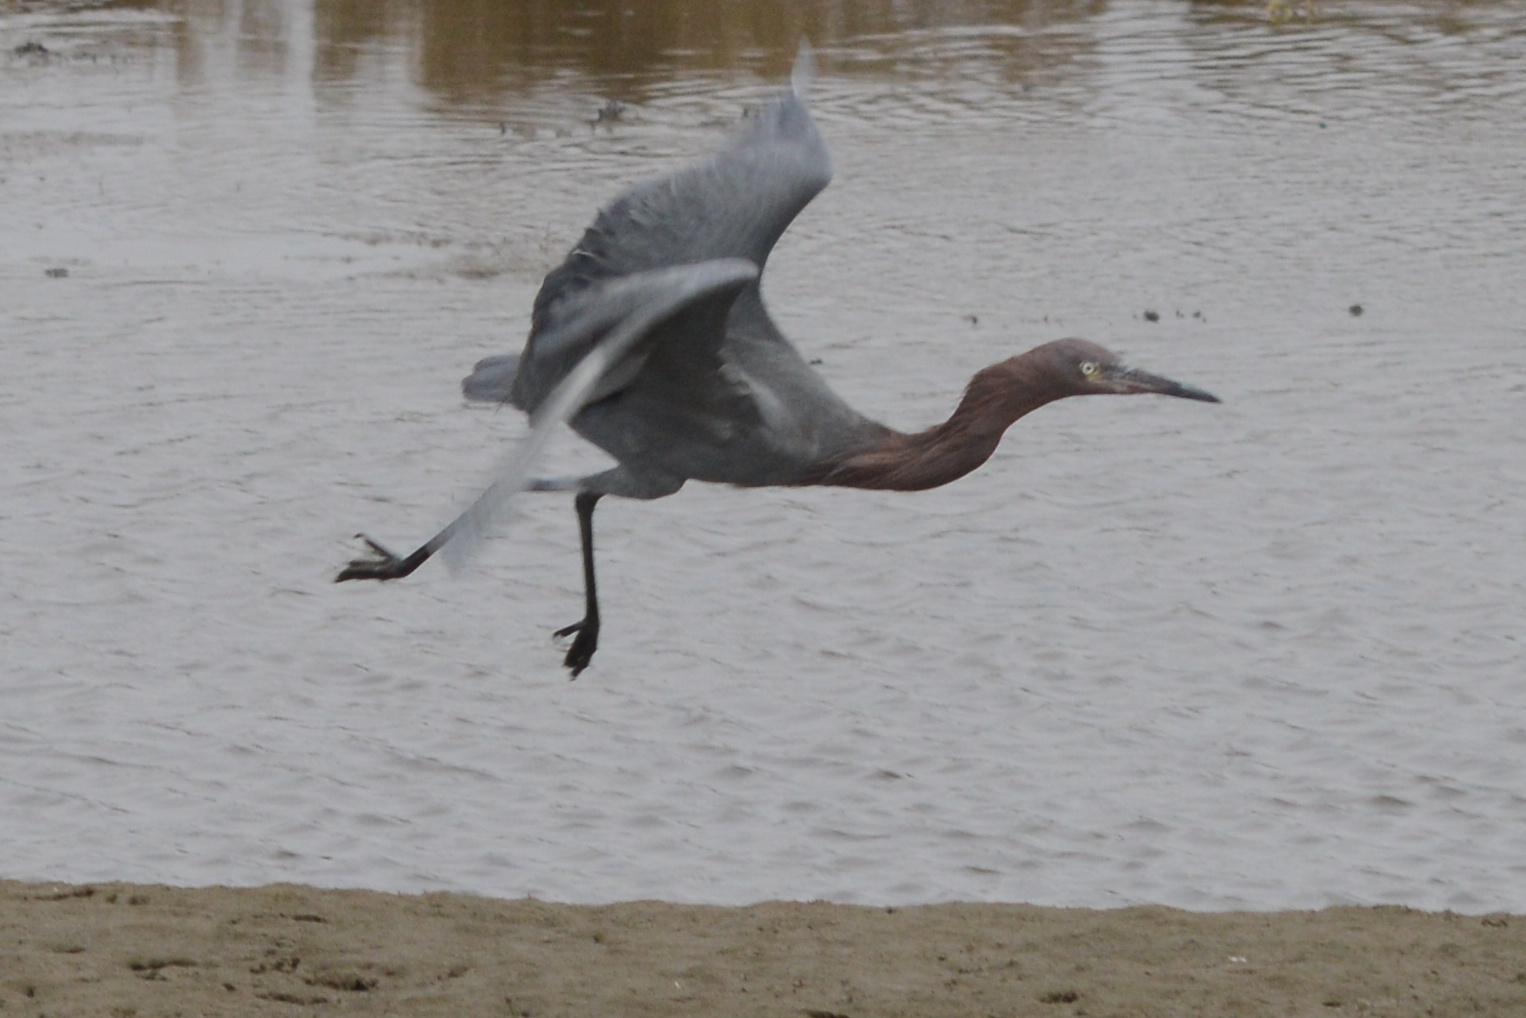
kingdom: Animalia
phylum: Chordata
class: Aves
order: Pelecaniformes
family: Ardeidae
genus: Egretta
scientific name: Egretta rufescens
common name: Reddish egret
